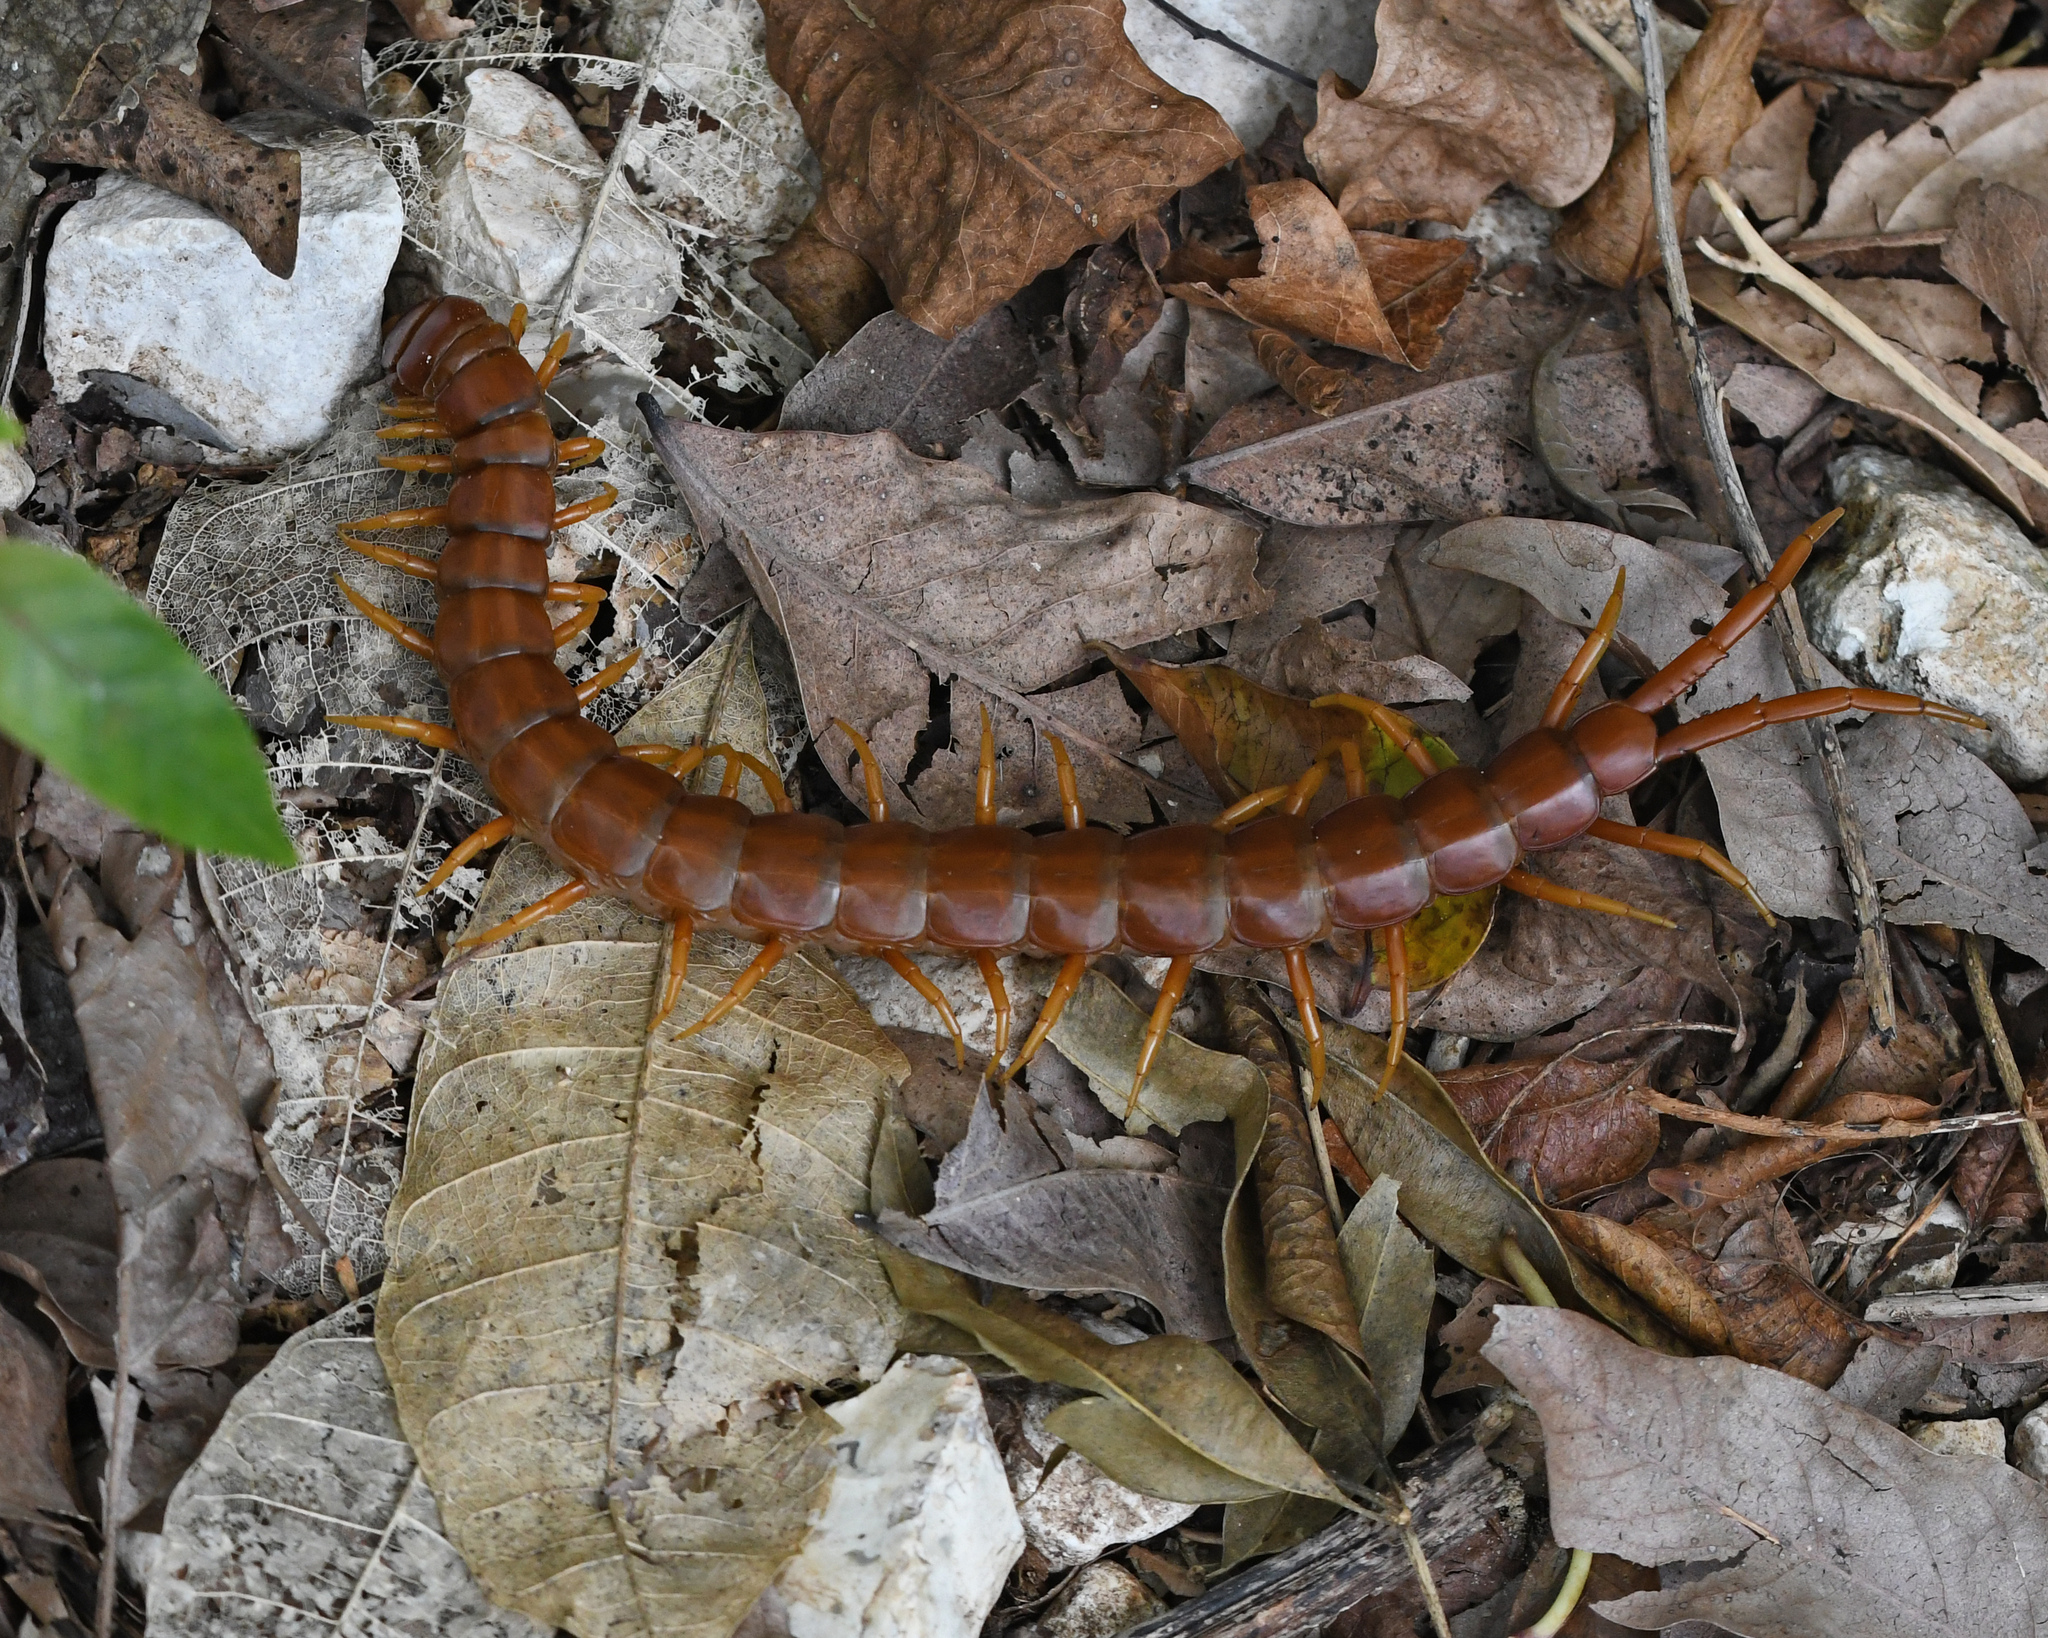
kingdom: Animalia
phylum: Arthropoda
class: Chilopoda
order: Scolopendromorpha
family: Scolopendridae
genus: Scolopendra
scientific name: Scolopendra alternans
